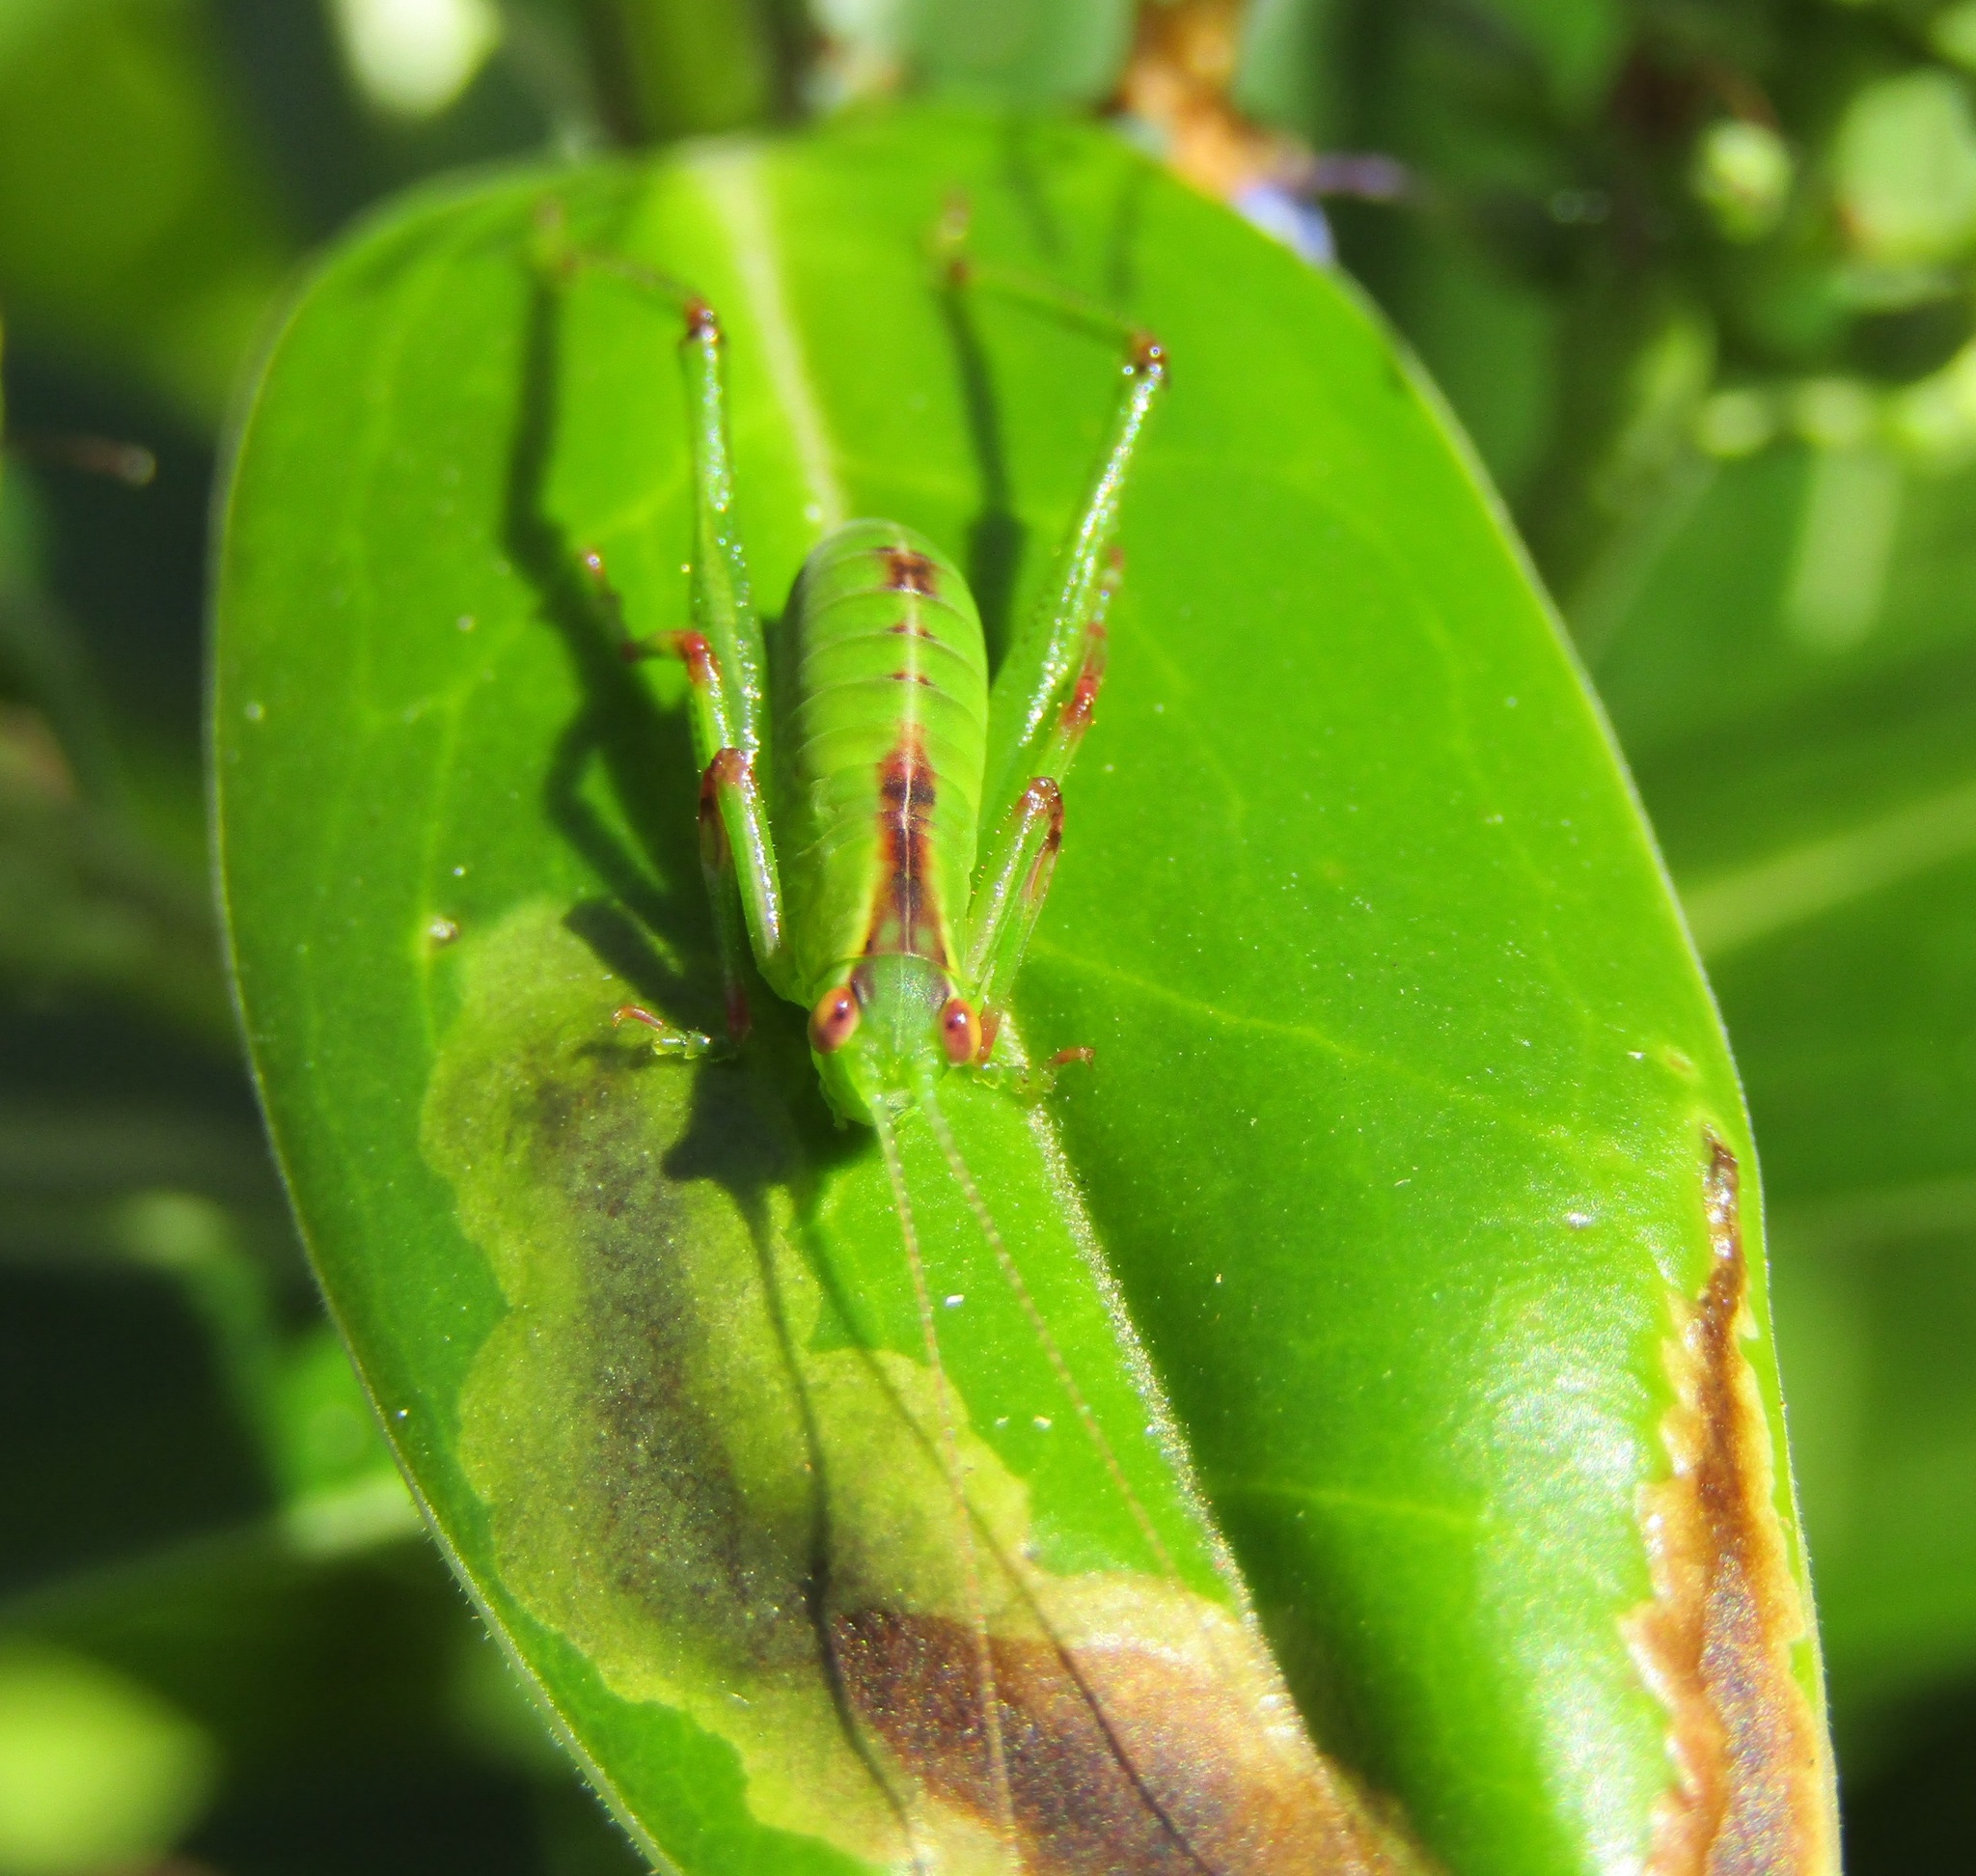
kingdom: Animalia
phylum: Arthropoda
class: Insecta
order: Orthoptera
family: Tettigoniidae
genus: Caedicia
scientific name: Caedicia simplex
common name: Common garden katydid
